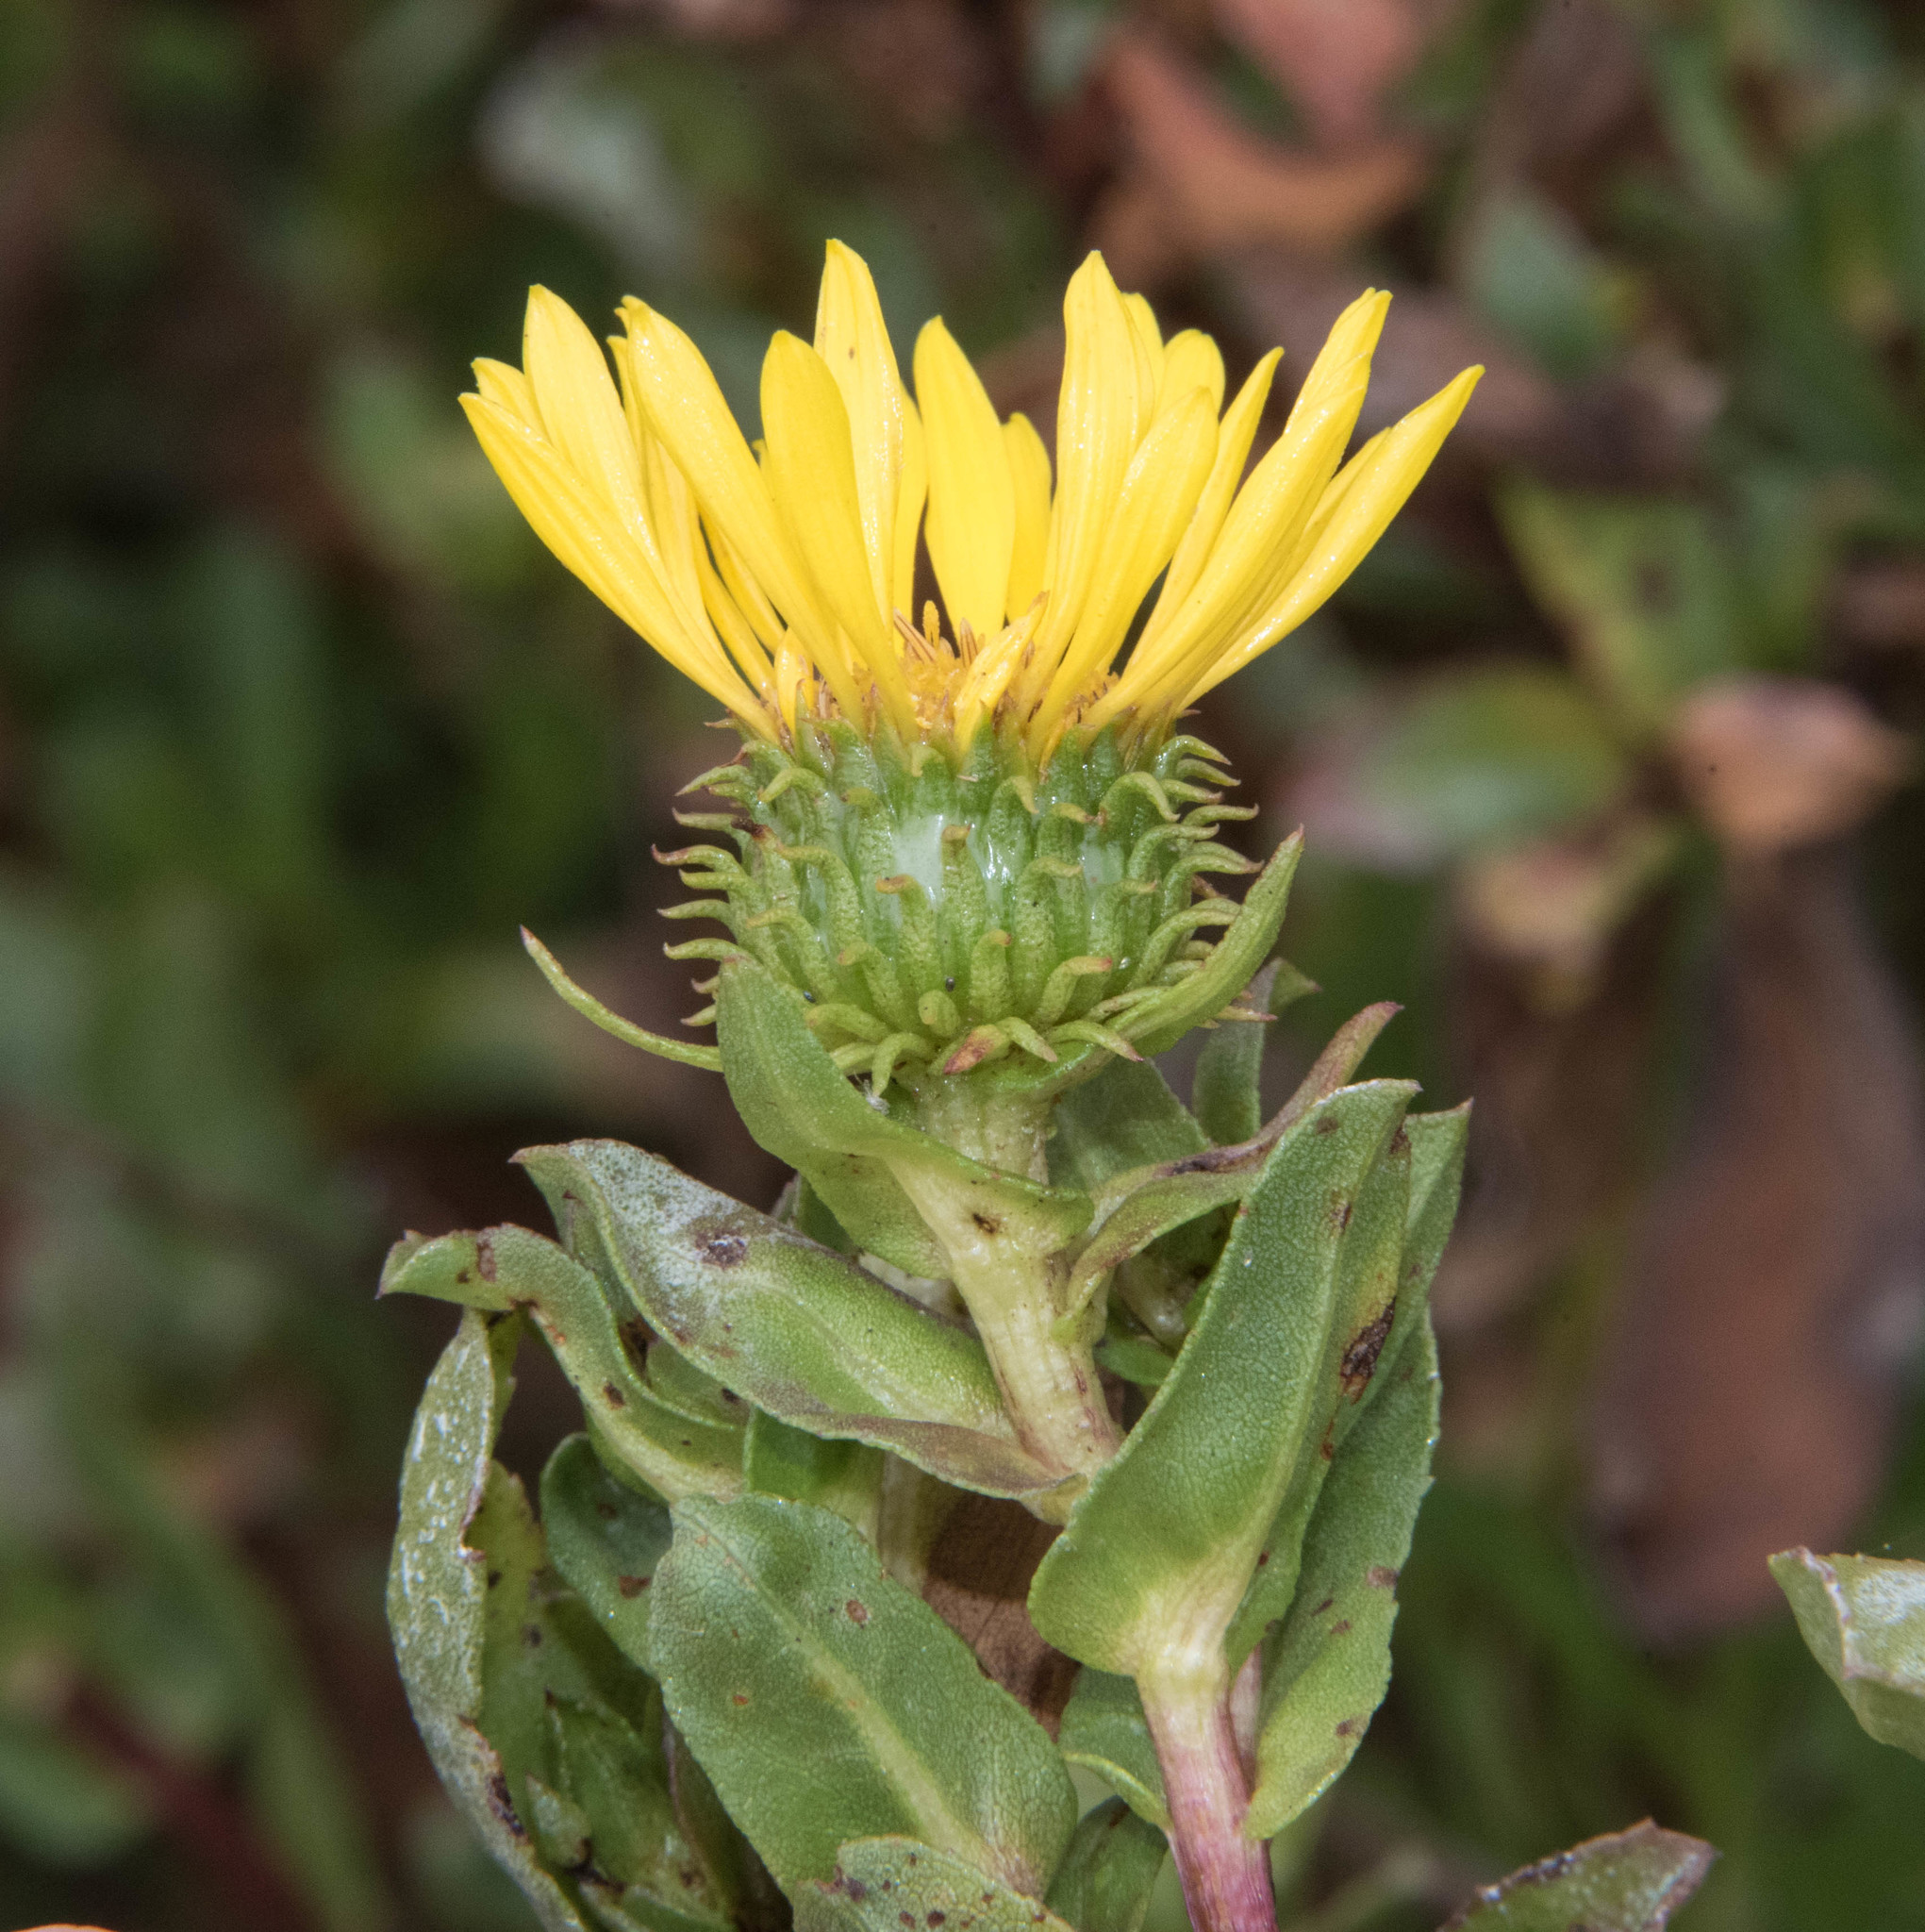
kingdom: Plantae
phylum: Tracheophyta
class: Magnoliopsida
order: Asterales
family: Asteraceae
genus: Grindelia
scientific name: Grindelia hirsutula
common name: Hairy gumweed
